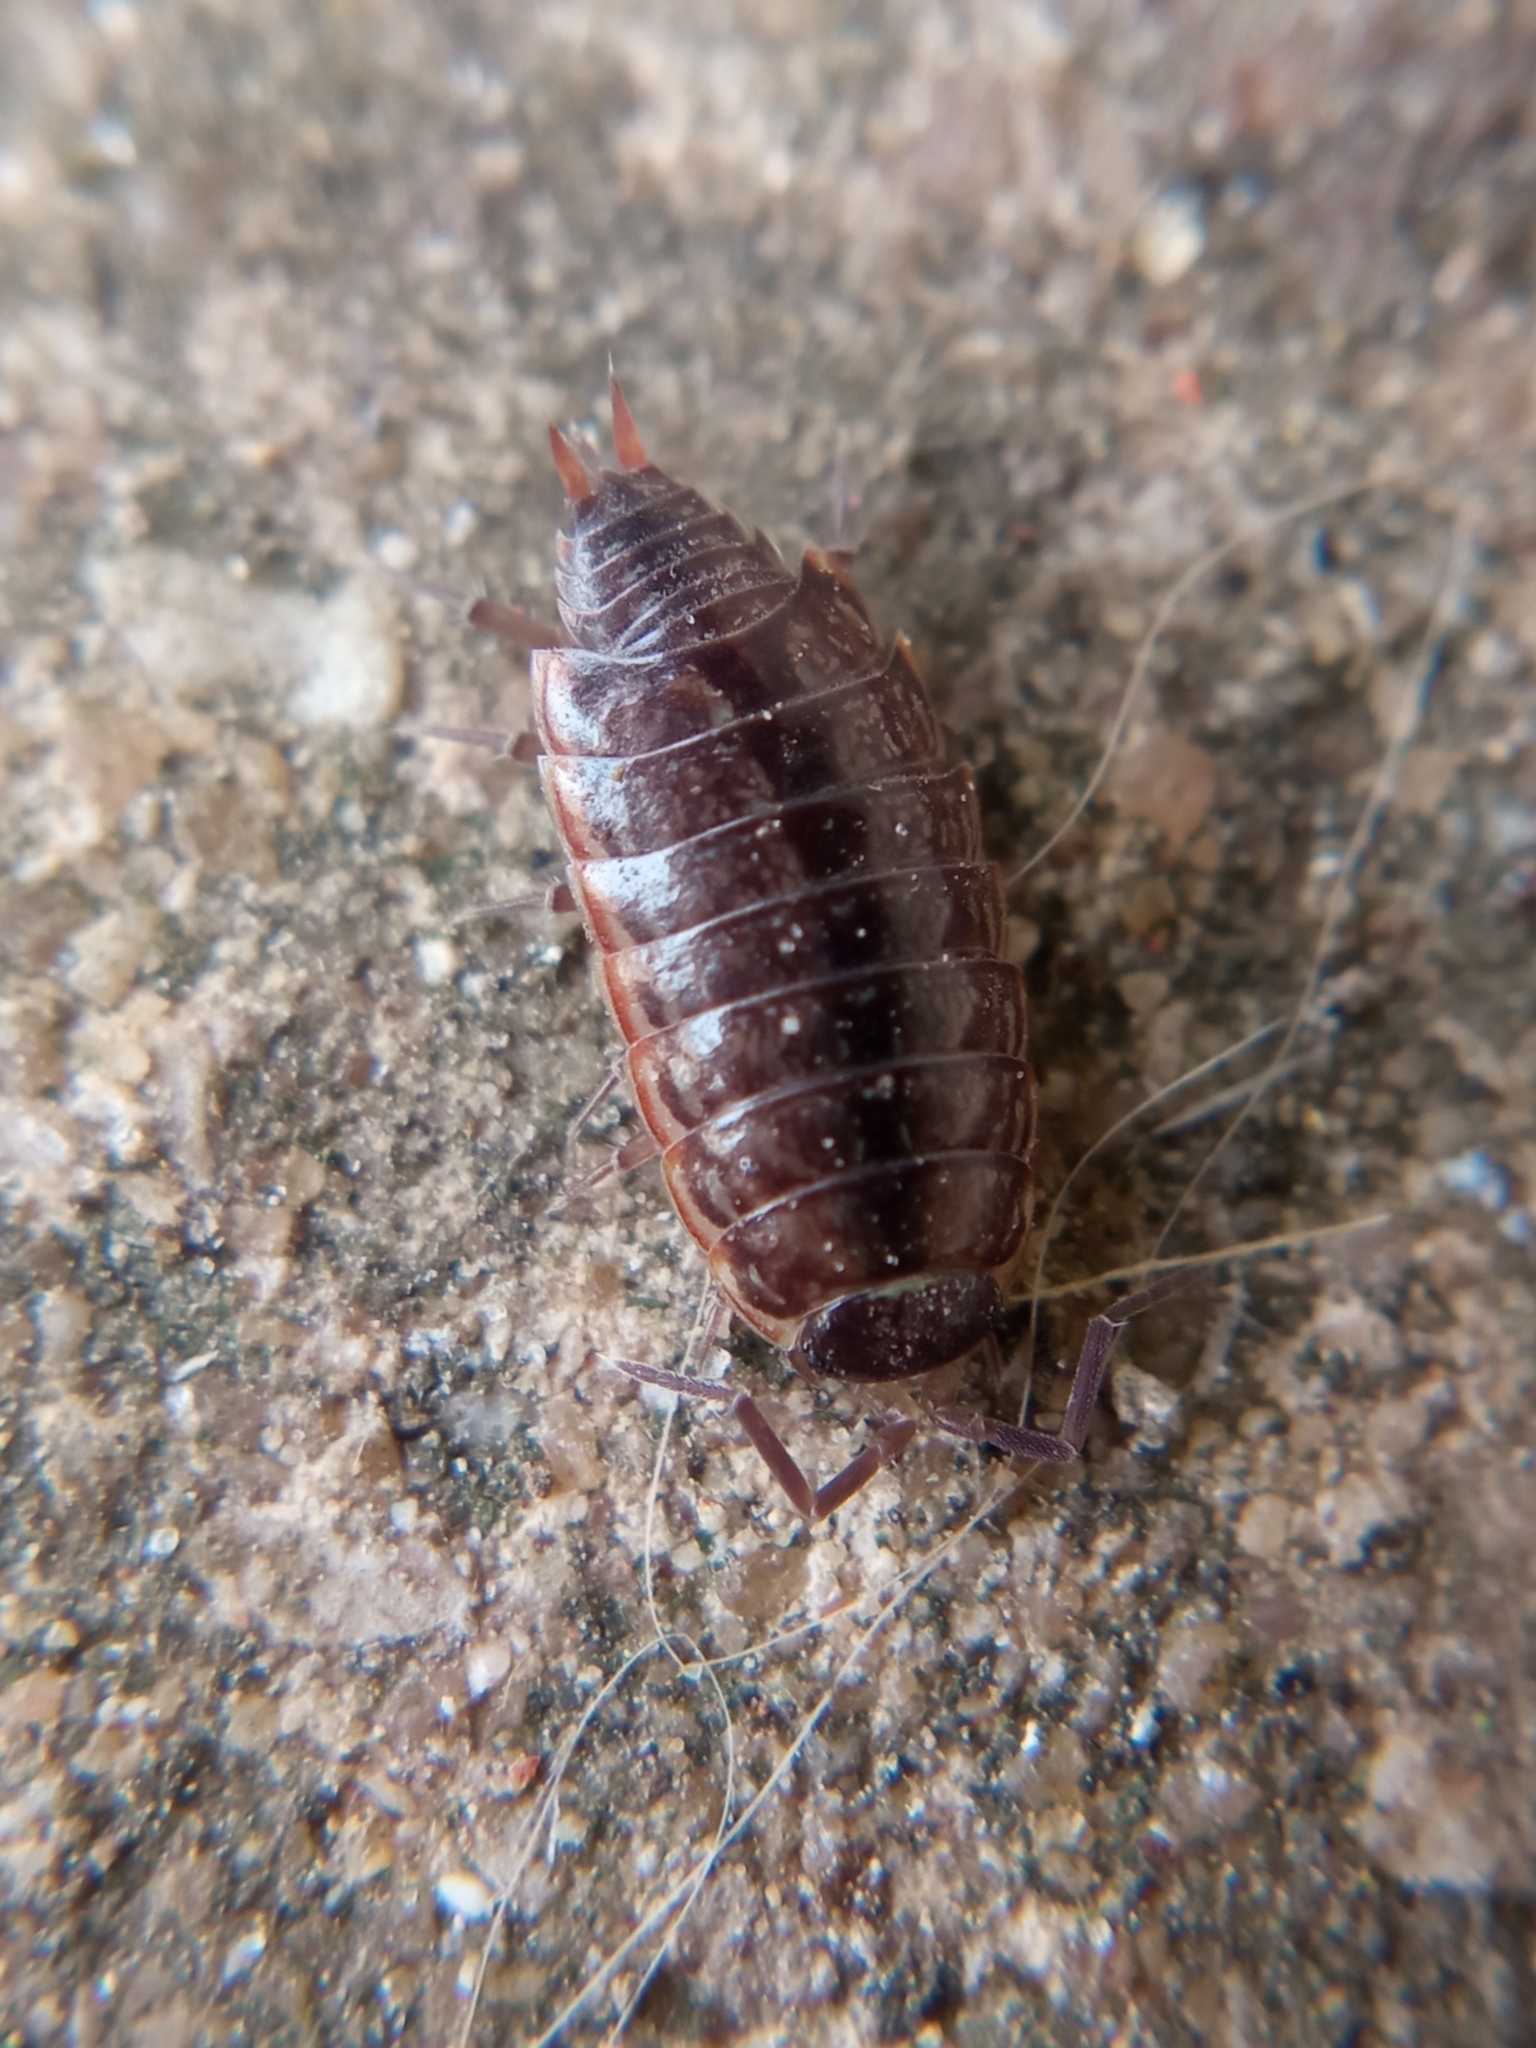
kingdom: Animalia
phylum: Arthropoda
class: Malacostraca
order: Isopoda
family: Philosciidae
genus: Philoscia
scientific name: Philoscia muscorum
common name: Common striped woodlouse
